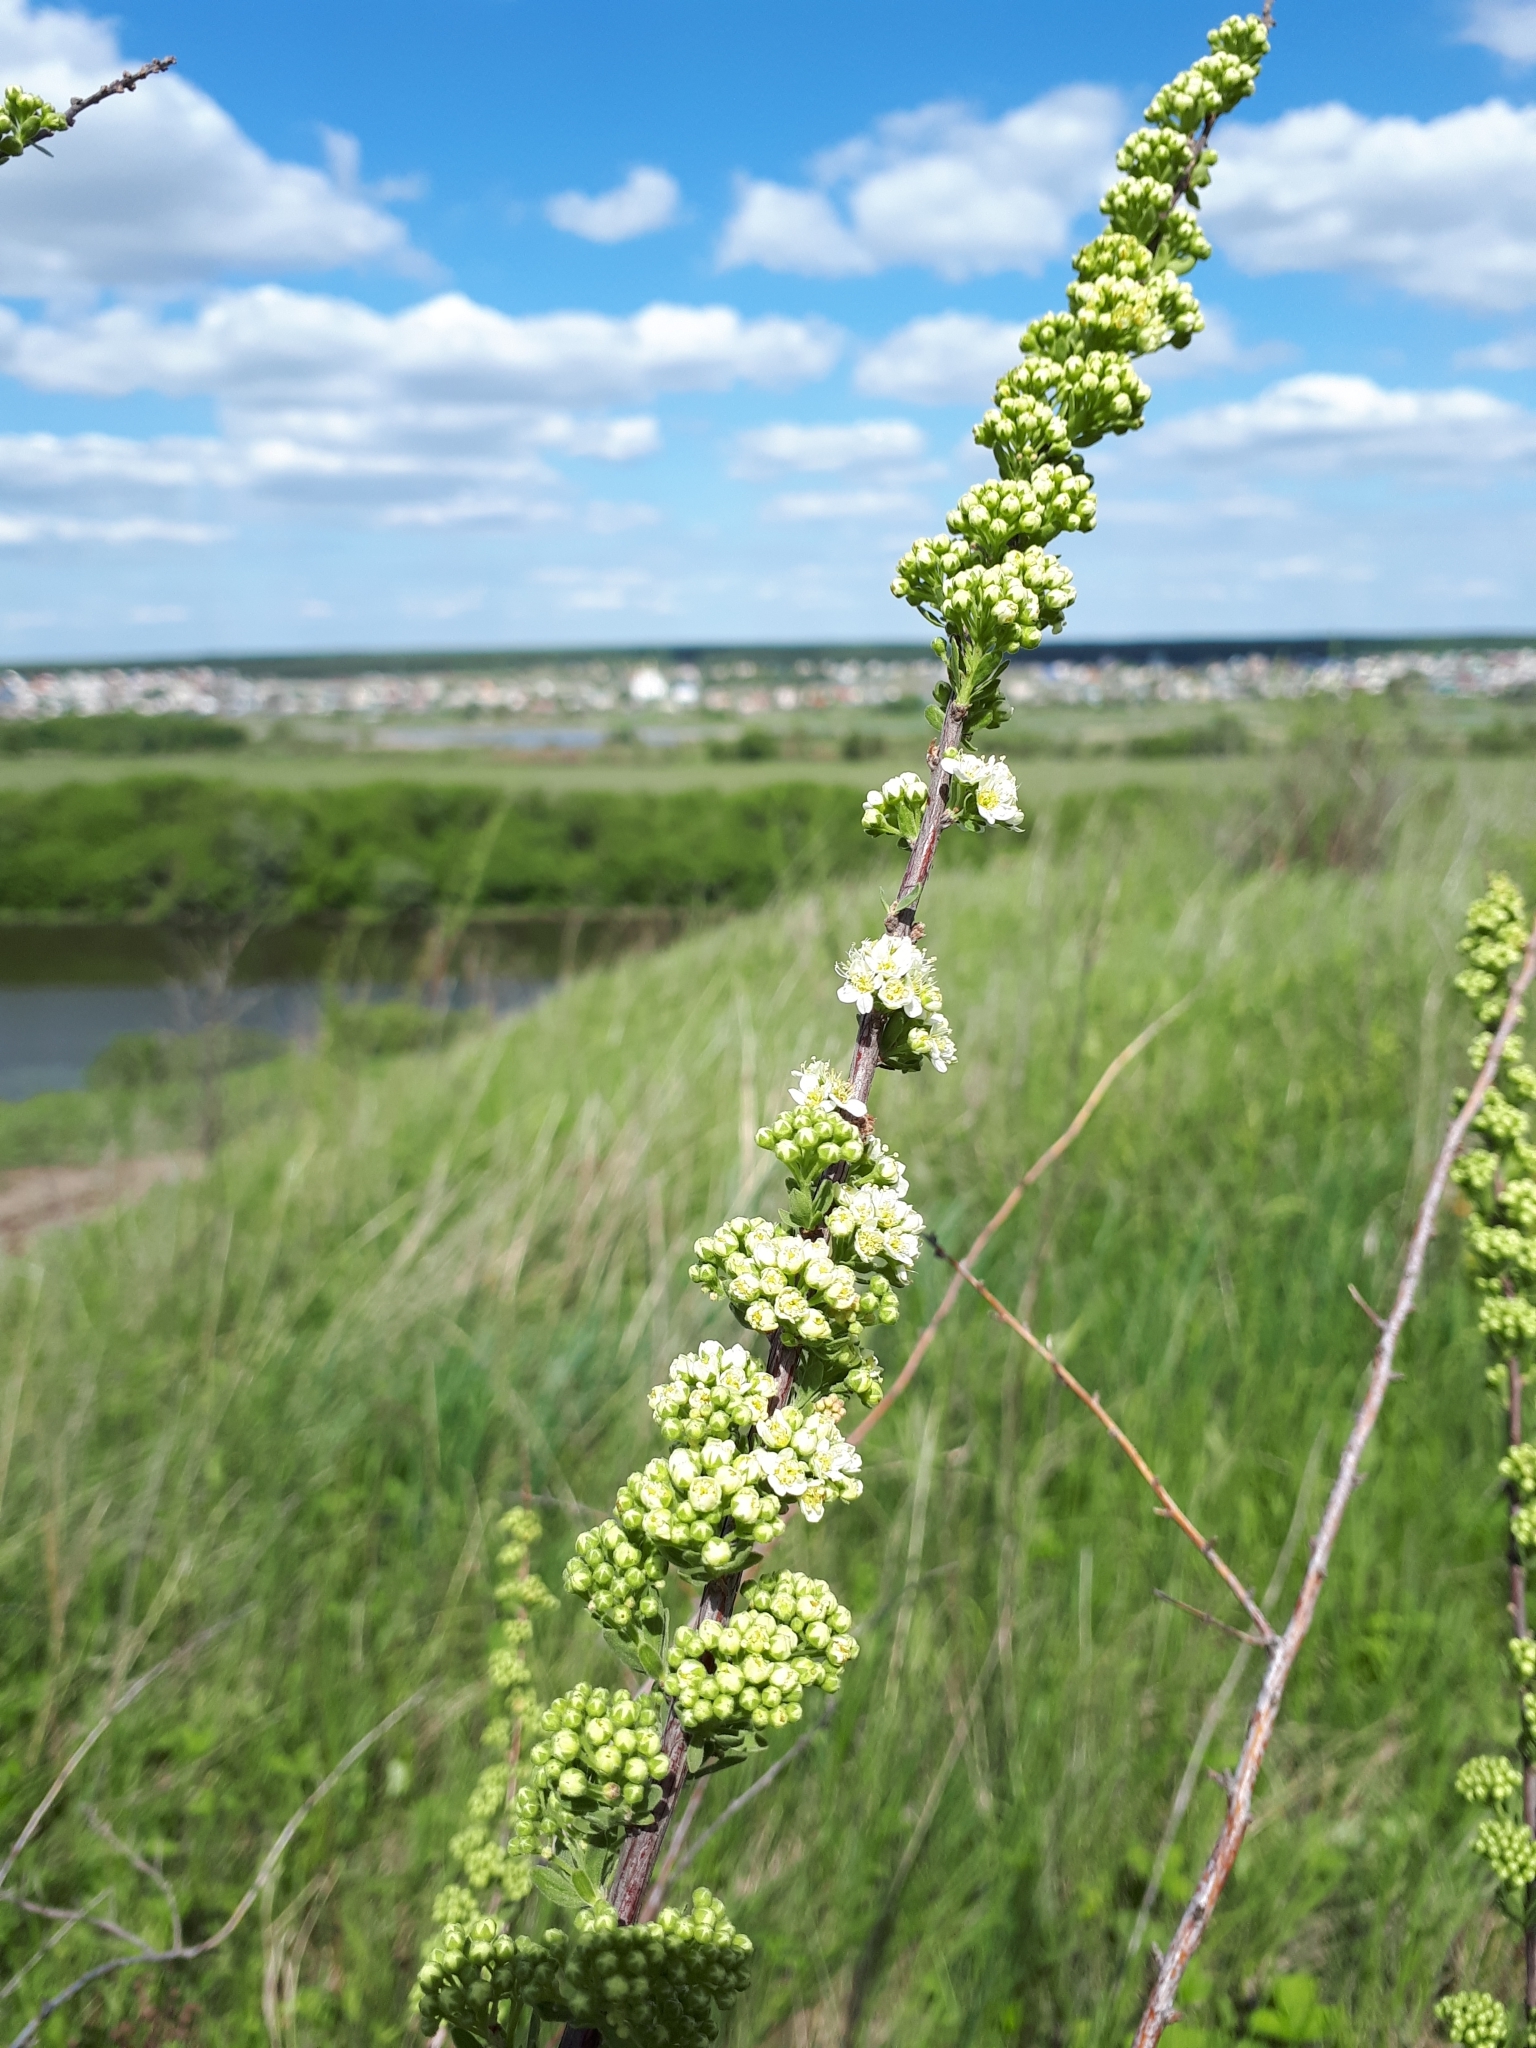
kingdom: Plantae
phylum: Tracheophyta
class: Magnoliopsida
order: Rosales
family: Rosaceae
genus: Spiraea
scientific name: Spiraea crenata
